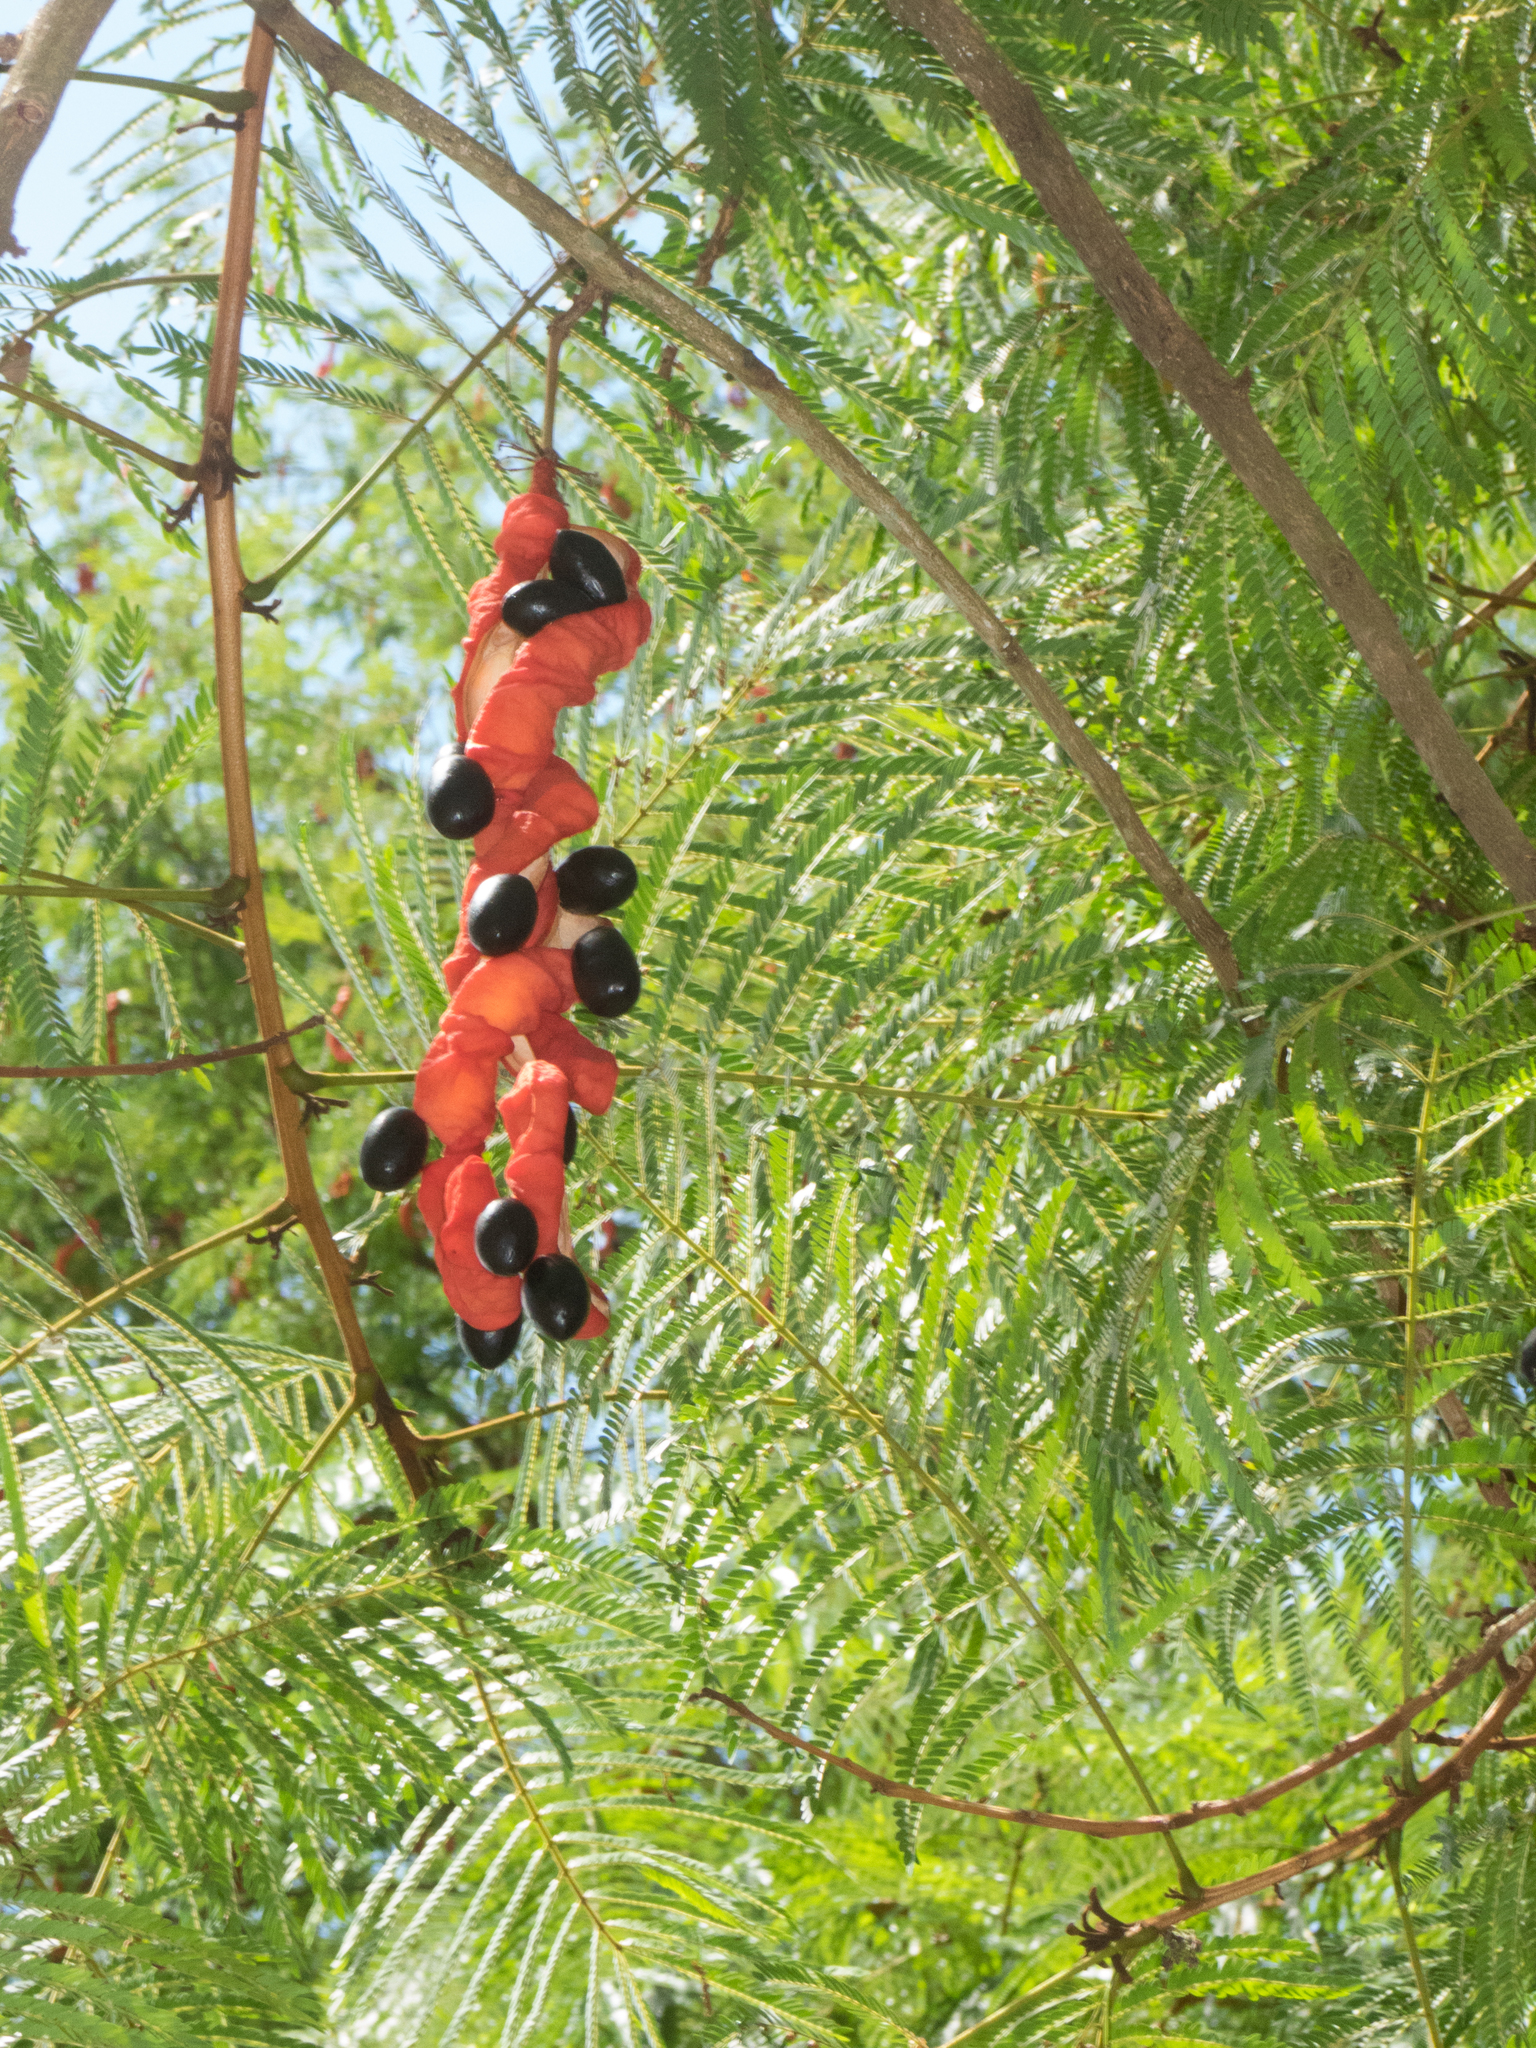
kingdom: Plantae
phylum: Tracheophyta
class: Magnoliopsida
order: Fabales
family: Fabaceae
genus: Cojoba
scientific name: Cojoba arborea
